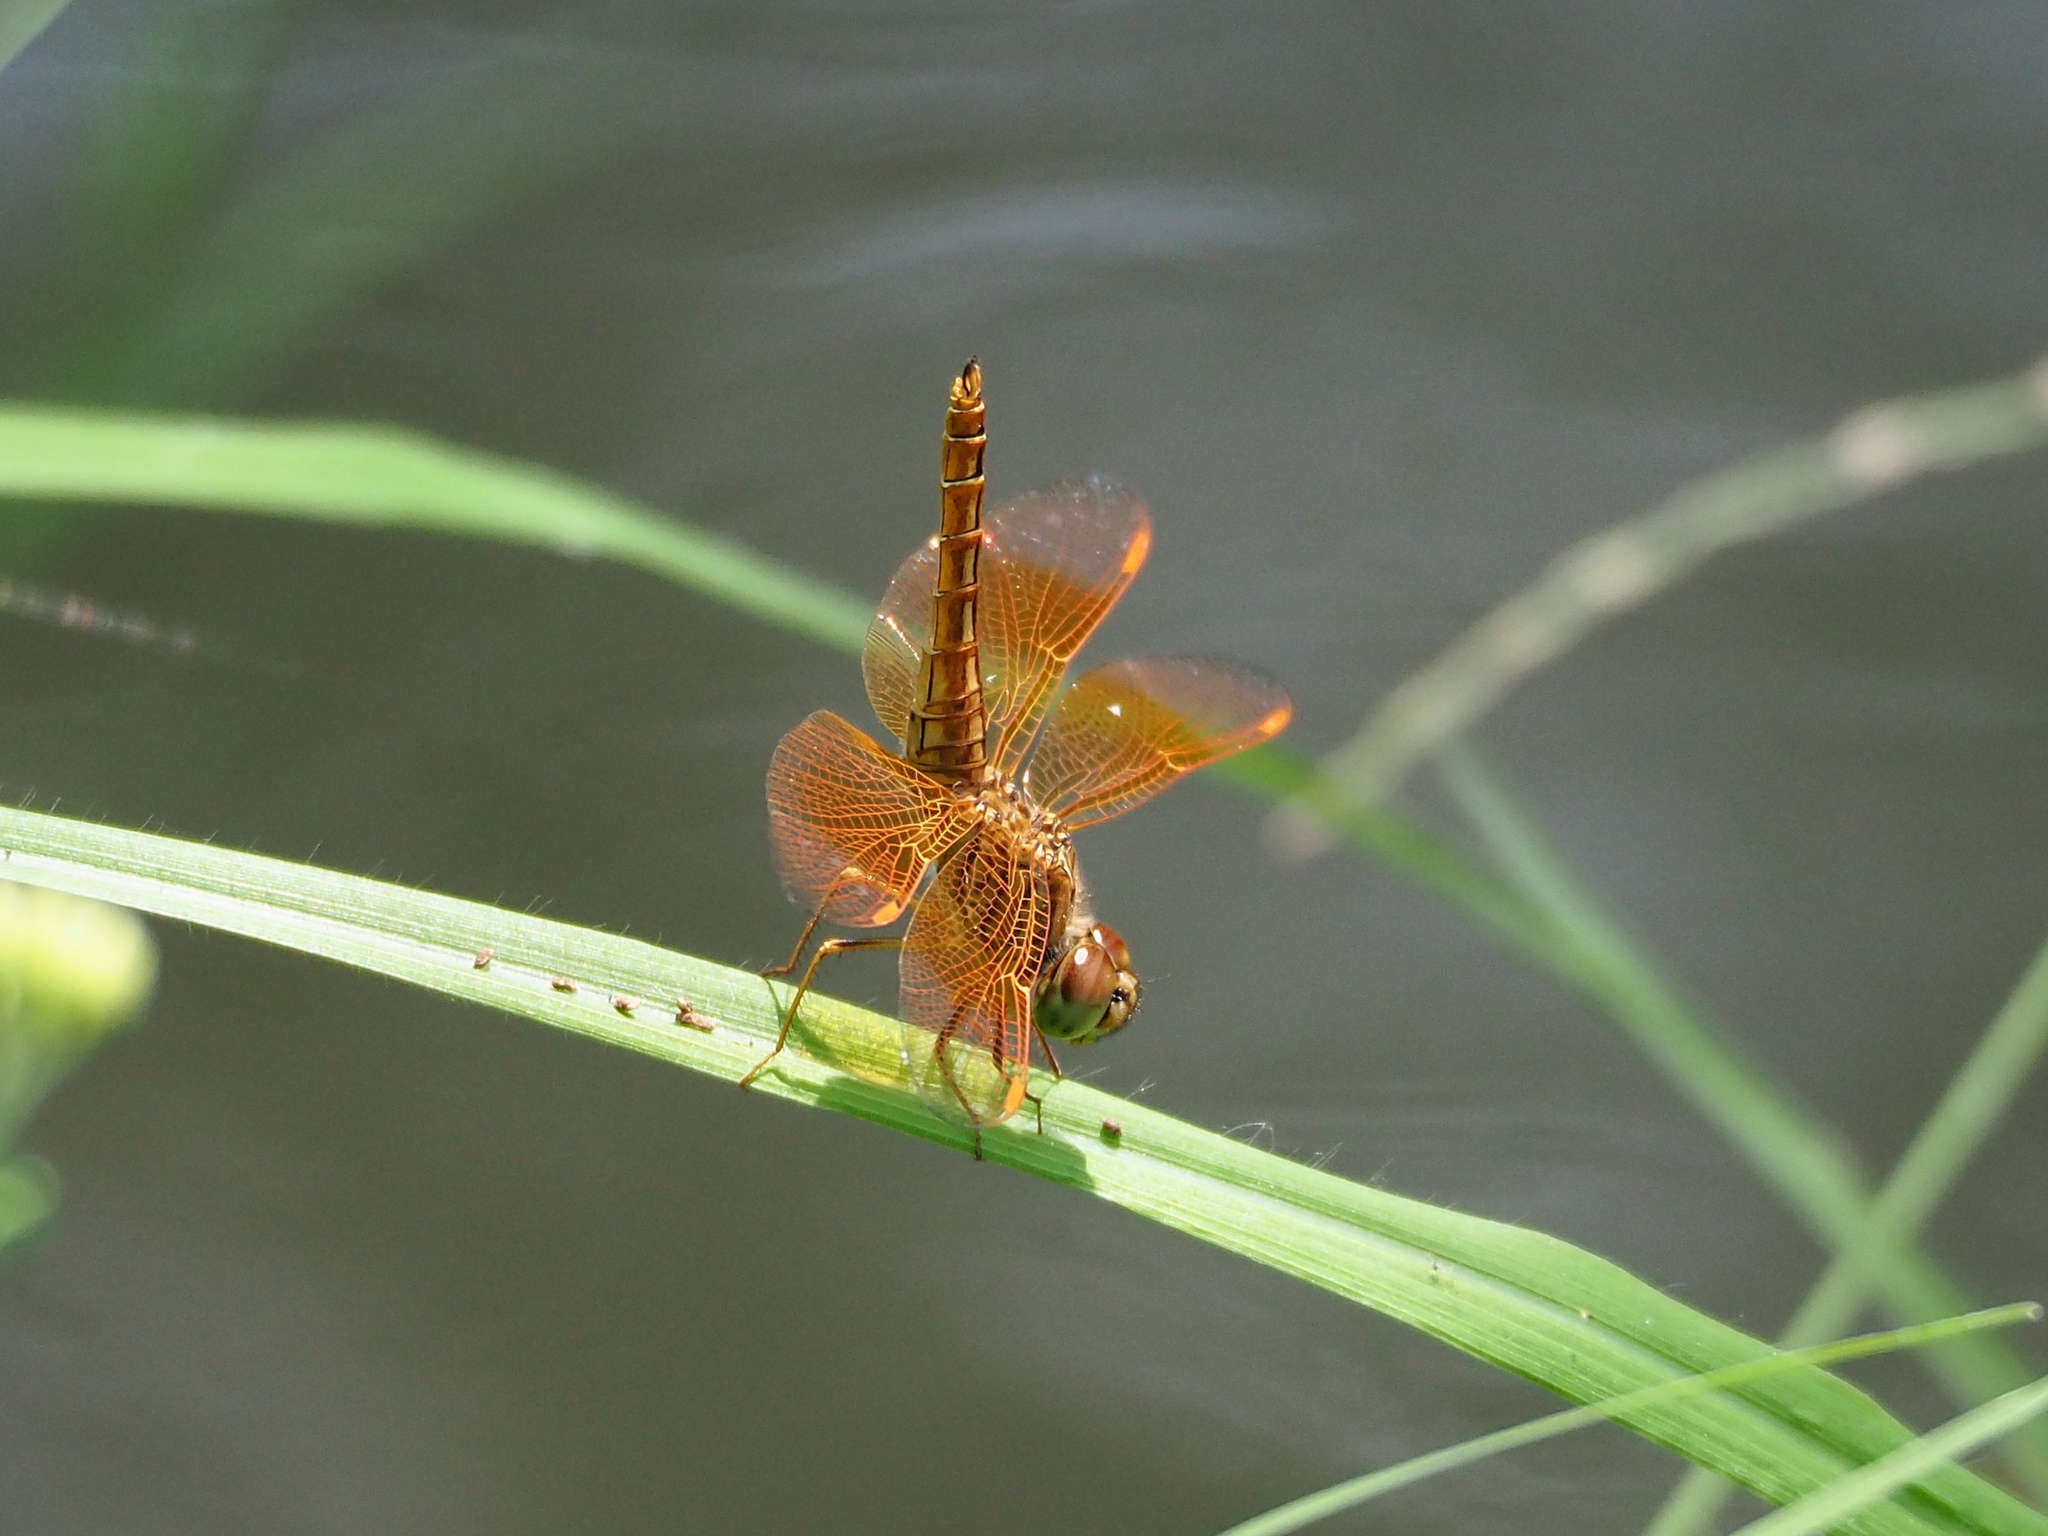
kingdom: Animalia
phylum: Arthropoda
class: Insecta
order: Odonata
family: Libellulidae
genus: Brachythemis
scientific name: Brachythemis contaminata
